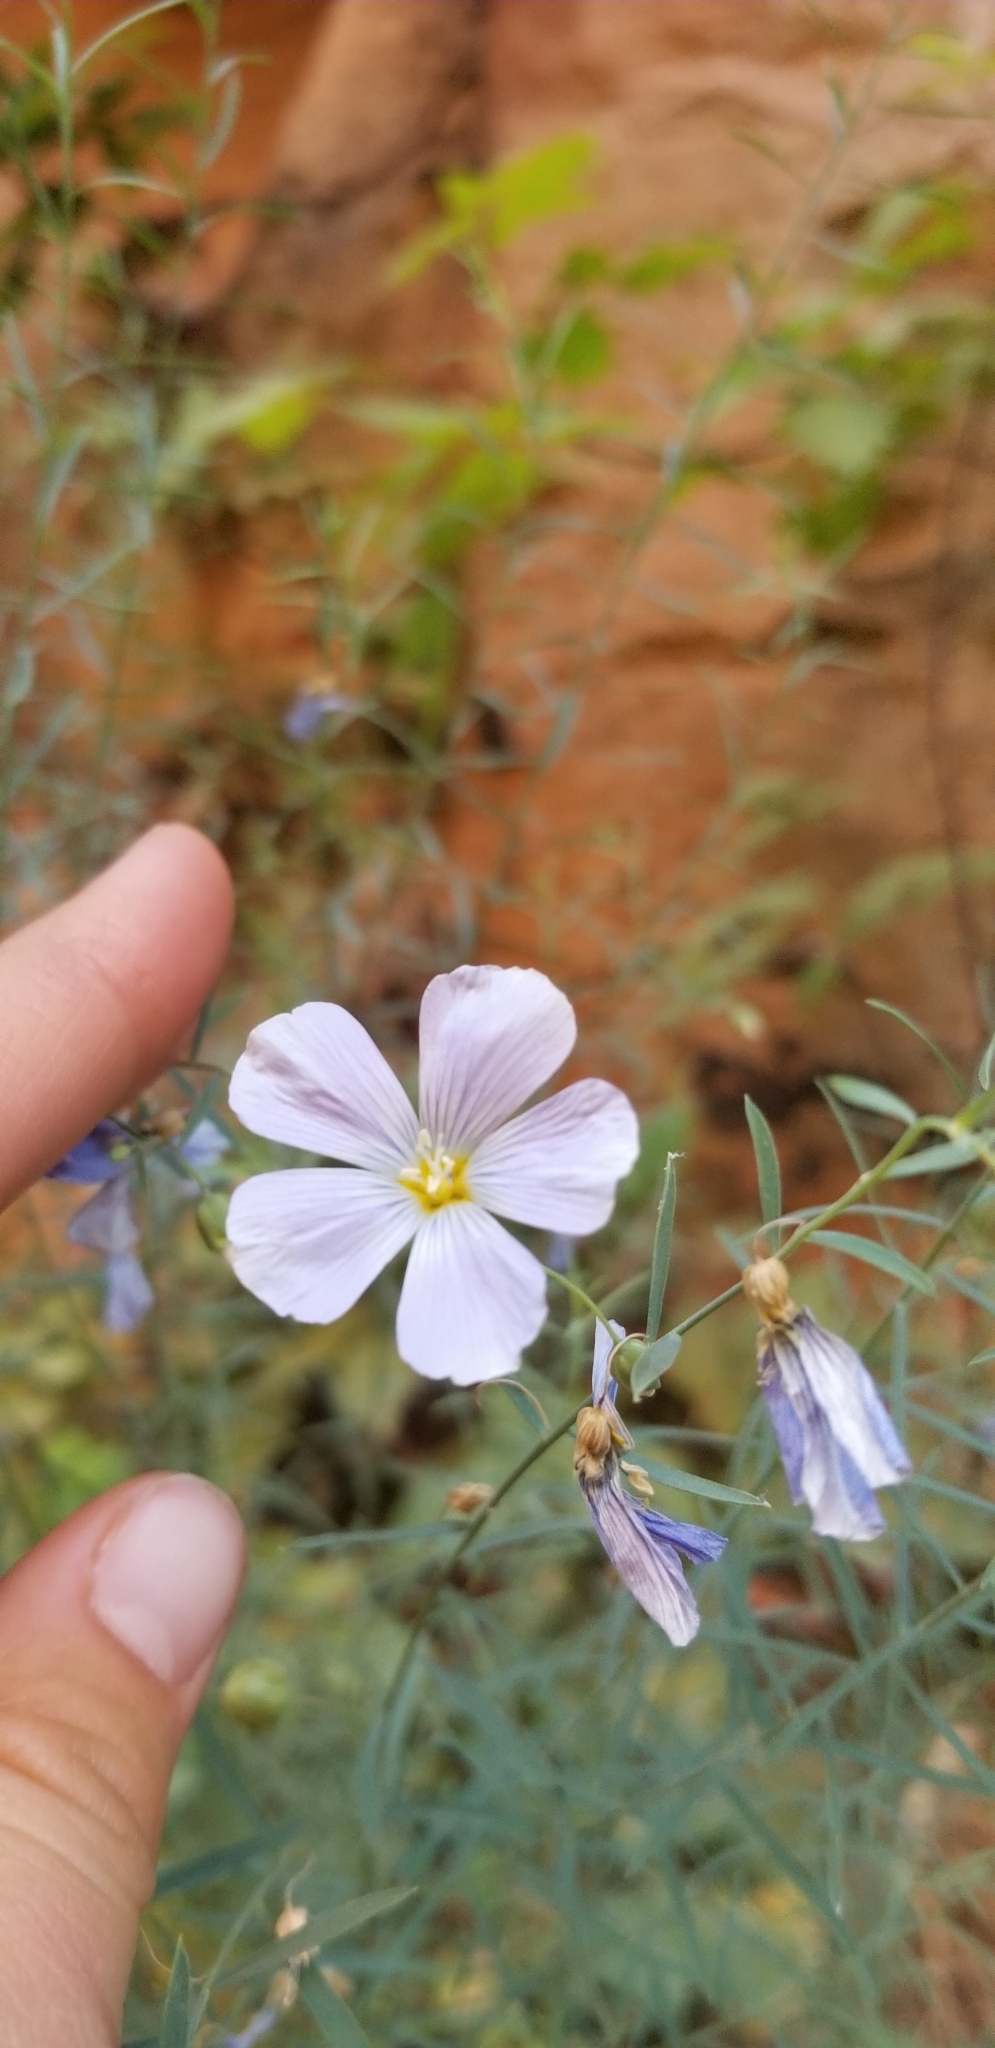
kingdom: Plantae
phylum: Tracheophyta
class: Magnoliopsida
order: Malpighiales
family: Linaceae
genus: Linum
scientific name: Linum lewisii
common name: Prairie flax
